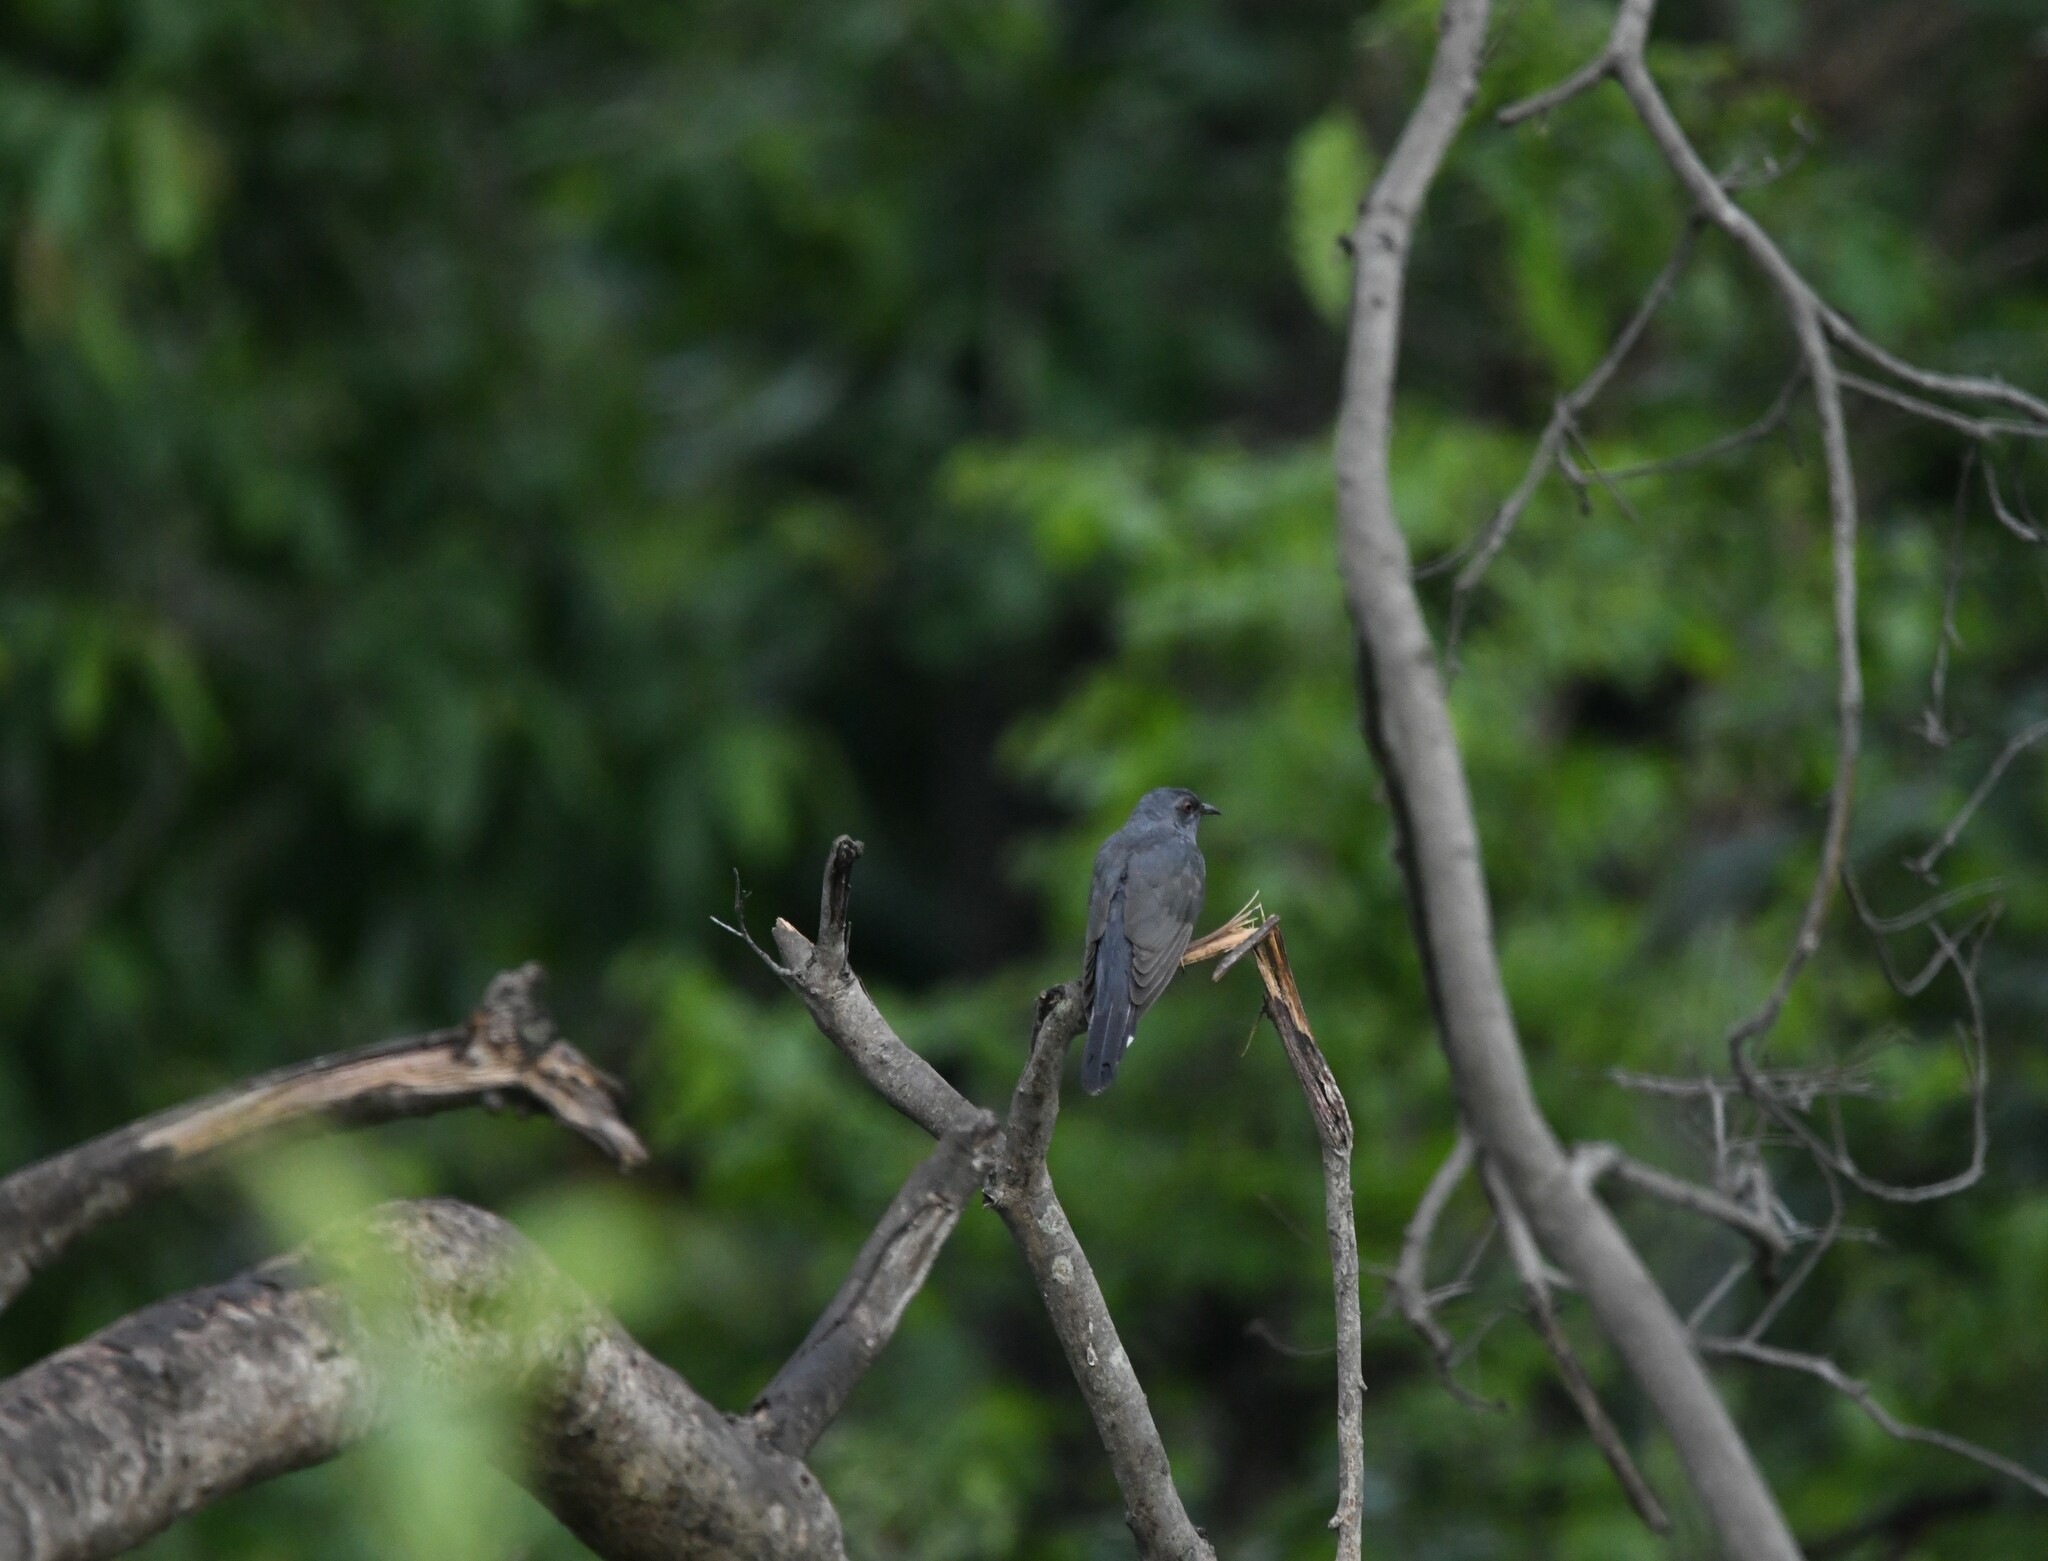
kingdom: Animalia
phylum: Chordata
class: Aves
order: Cuculiformes
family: Cuculidae
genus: Cacomantis
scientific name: Cacomantis passerinus
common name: Grey-bellied cuckoo
